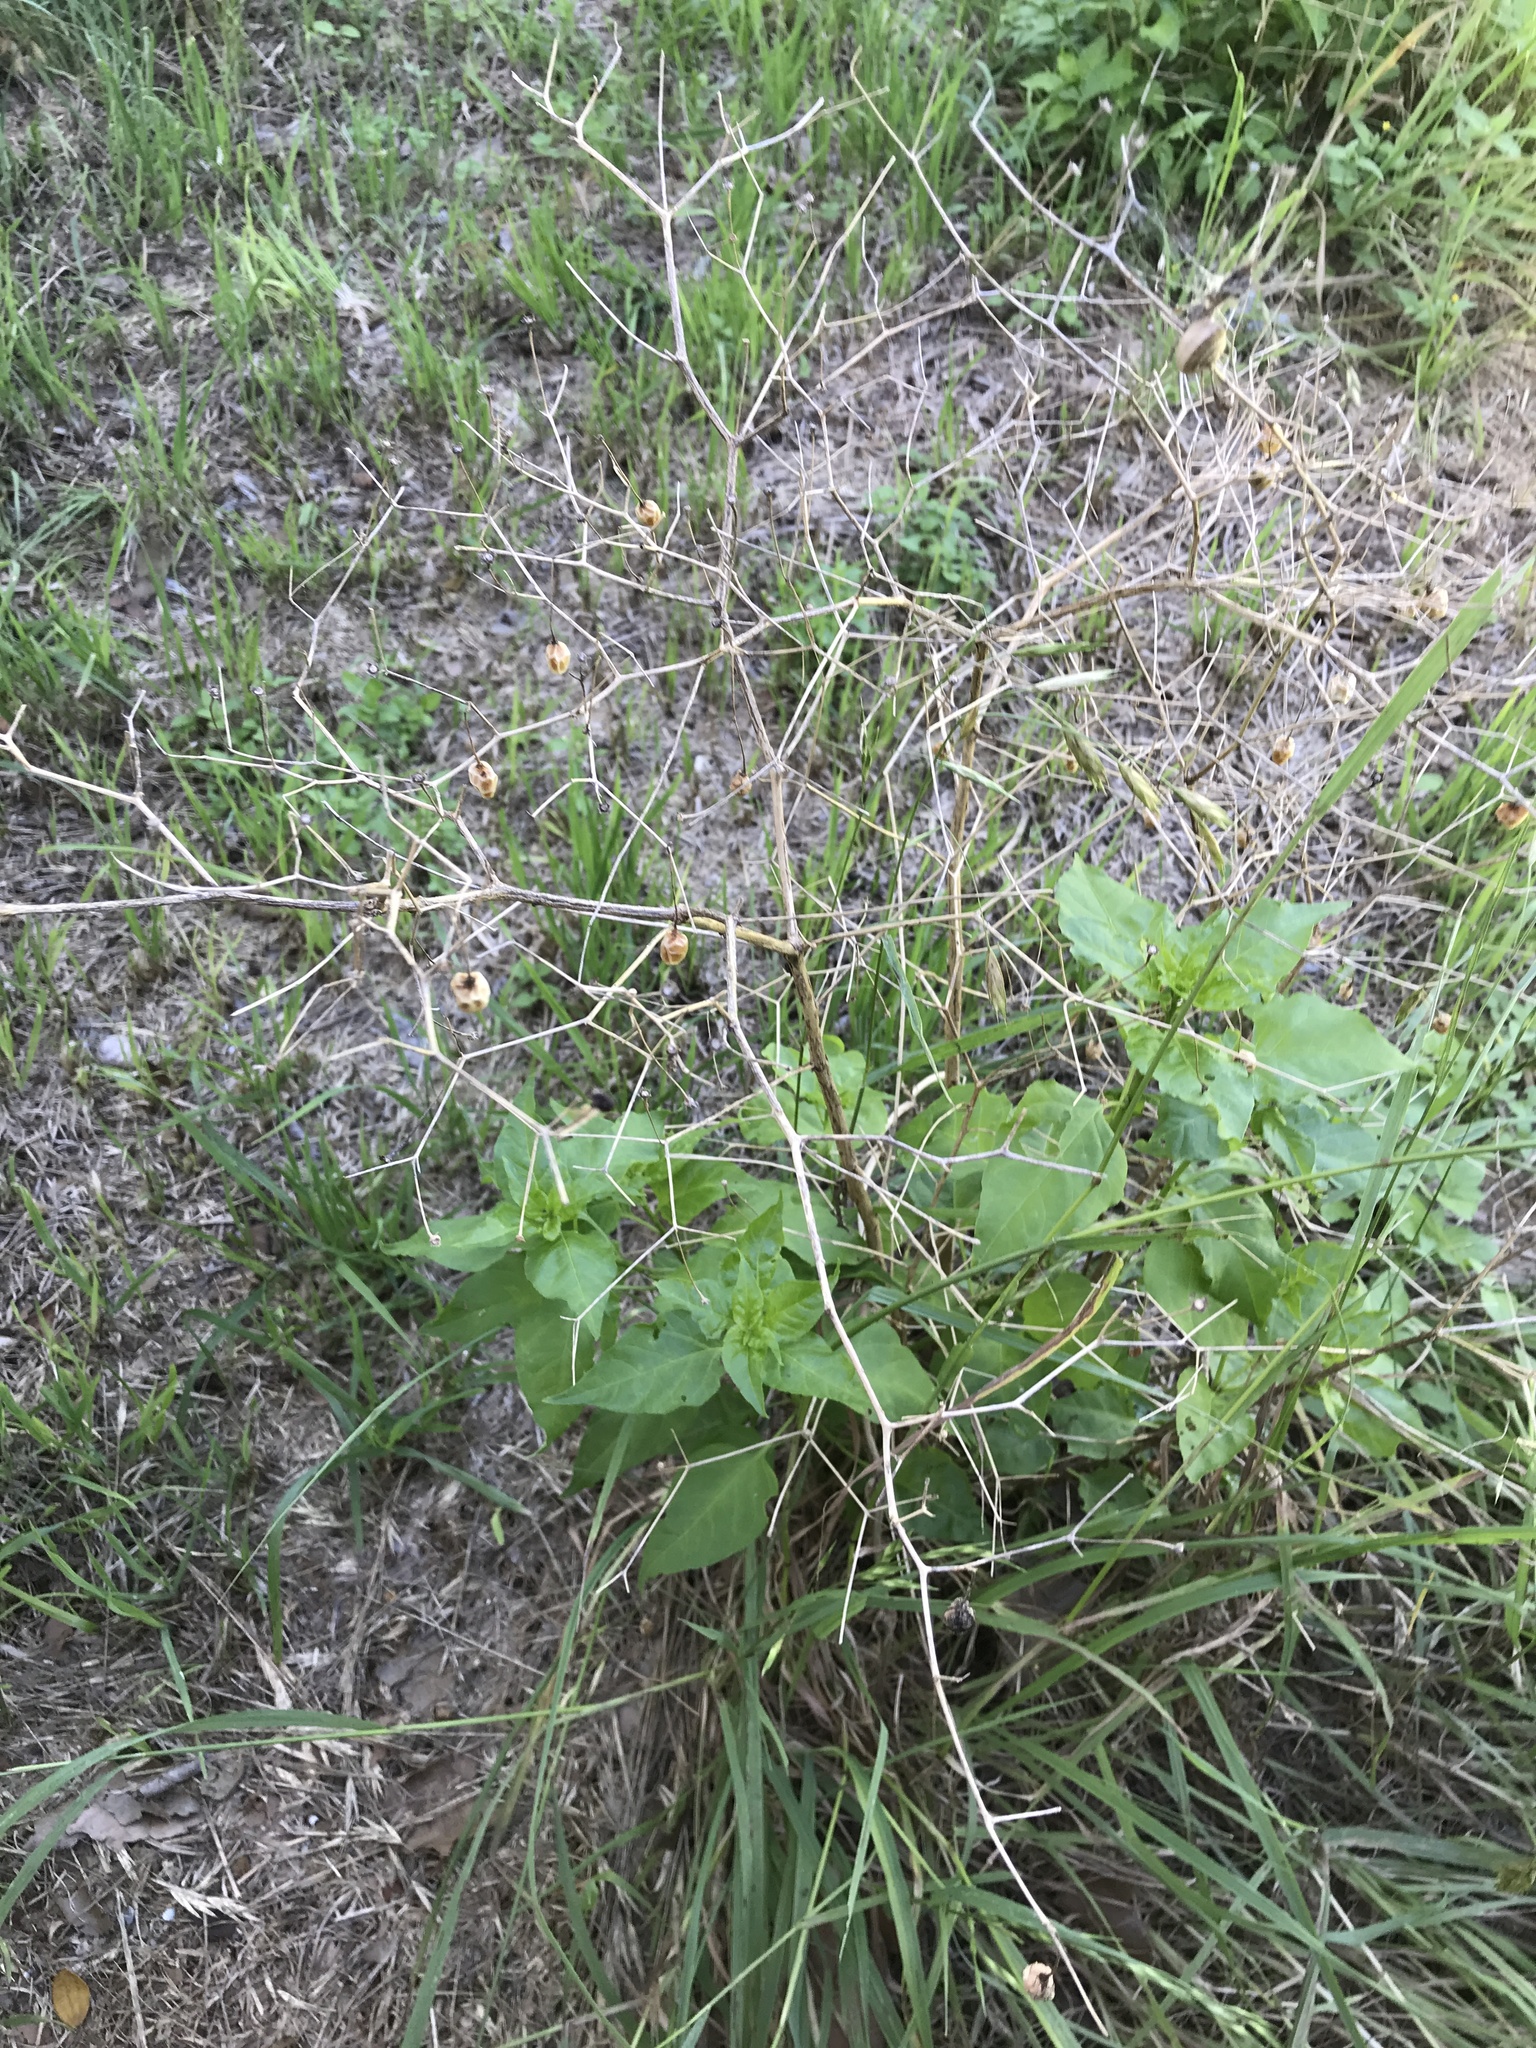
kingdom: Plantae
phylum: Tracheophyta
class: Magnoliopsida
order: Solanales
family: Solanaceae
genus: Capsicum
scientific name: Capsicum annuum
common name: Sweet pepper
